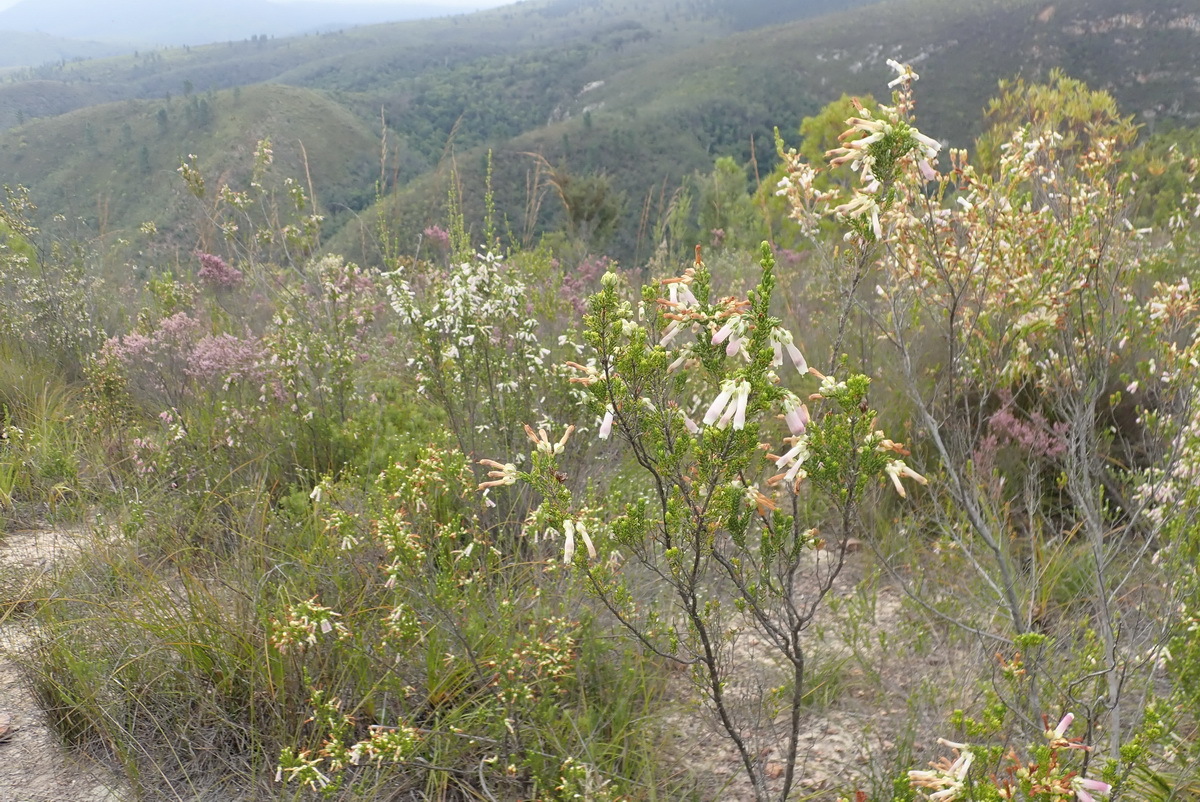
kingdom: Plantae
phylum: Tracheophyta
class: Magnoliopsida
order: Ericales
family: Ericaceae
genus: Erica
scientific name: Erica diaphana
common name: Heath
